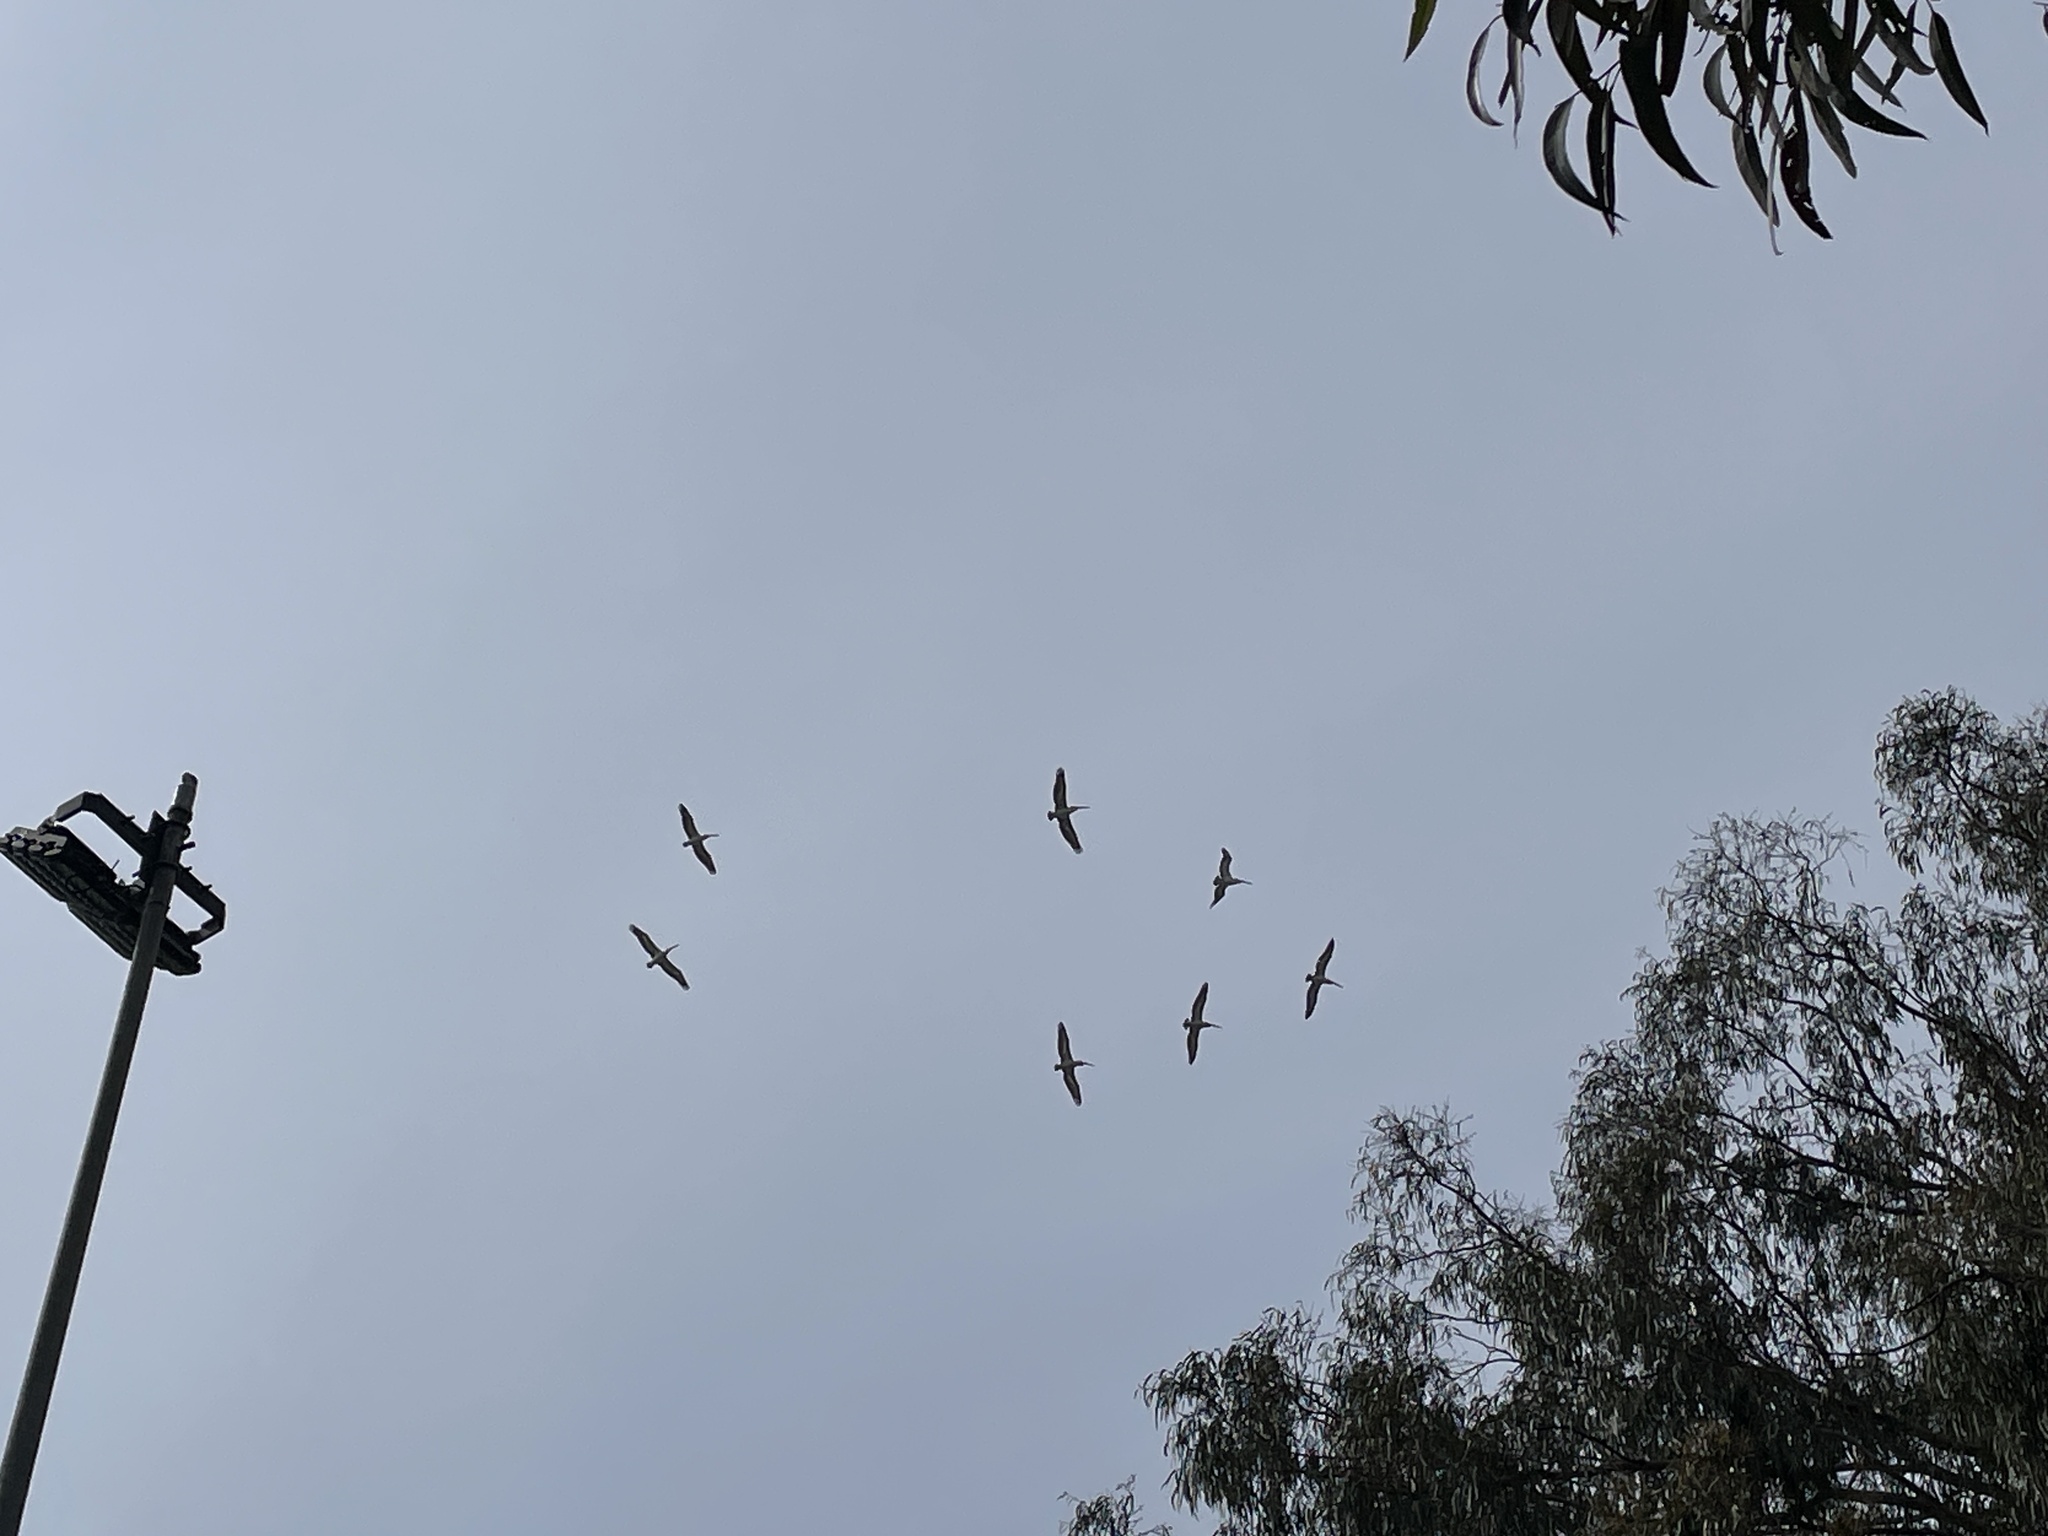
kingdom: Animalia
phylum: Chordata
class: Aves
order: Pelecaniformes
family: Pelecanidae
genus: Pelecanus
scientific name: Pelecanus conspicillatus
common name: Australian pelican
